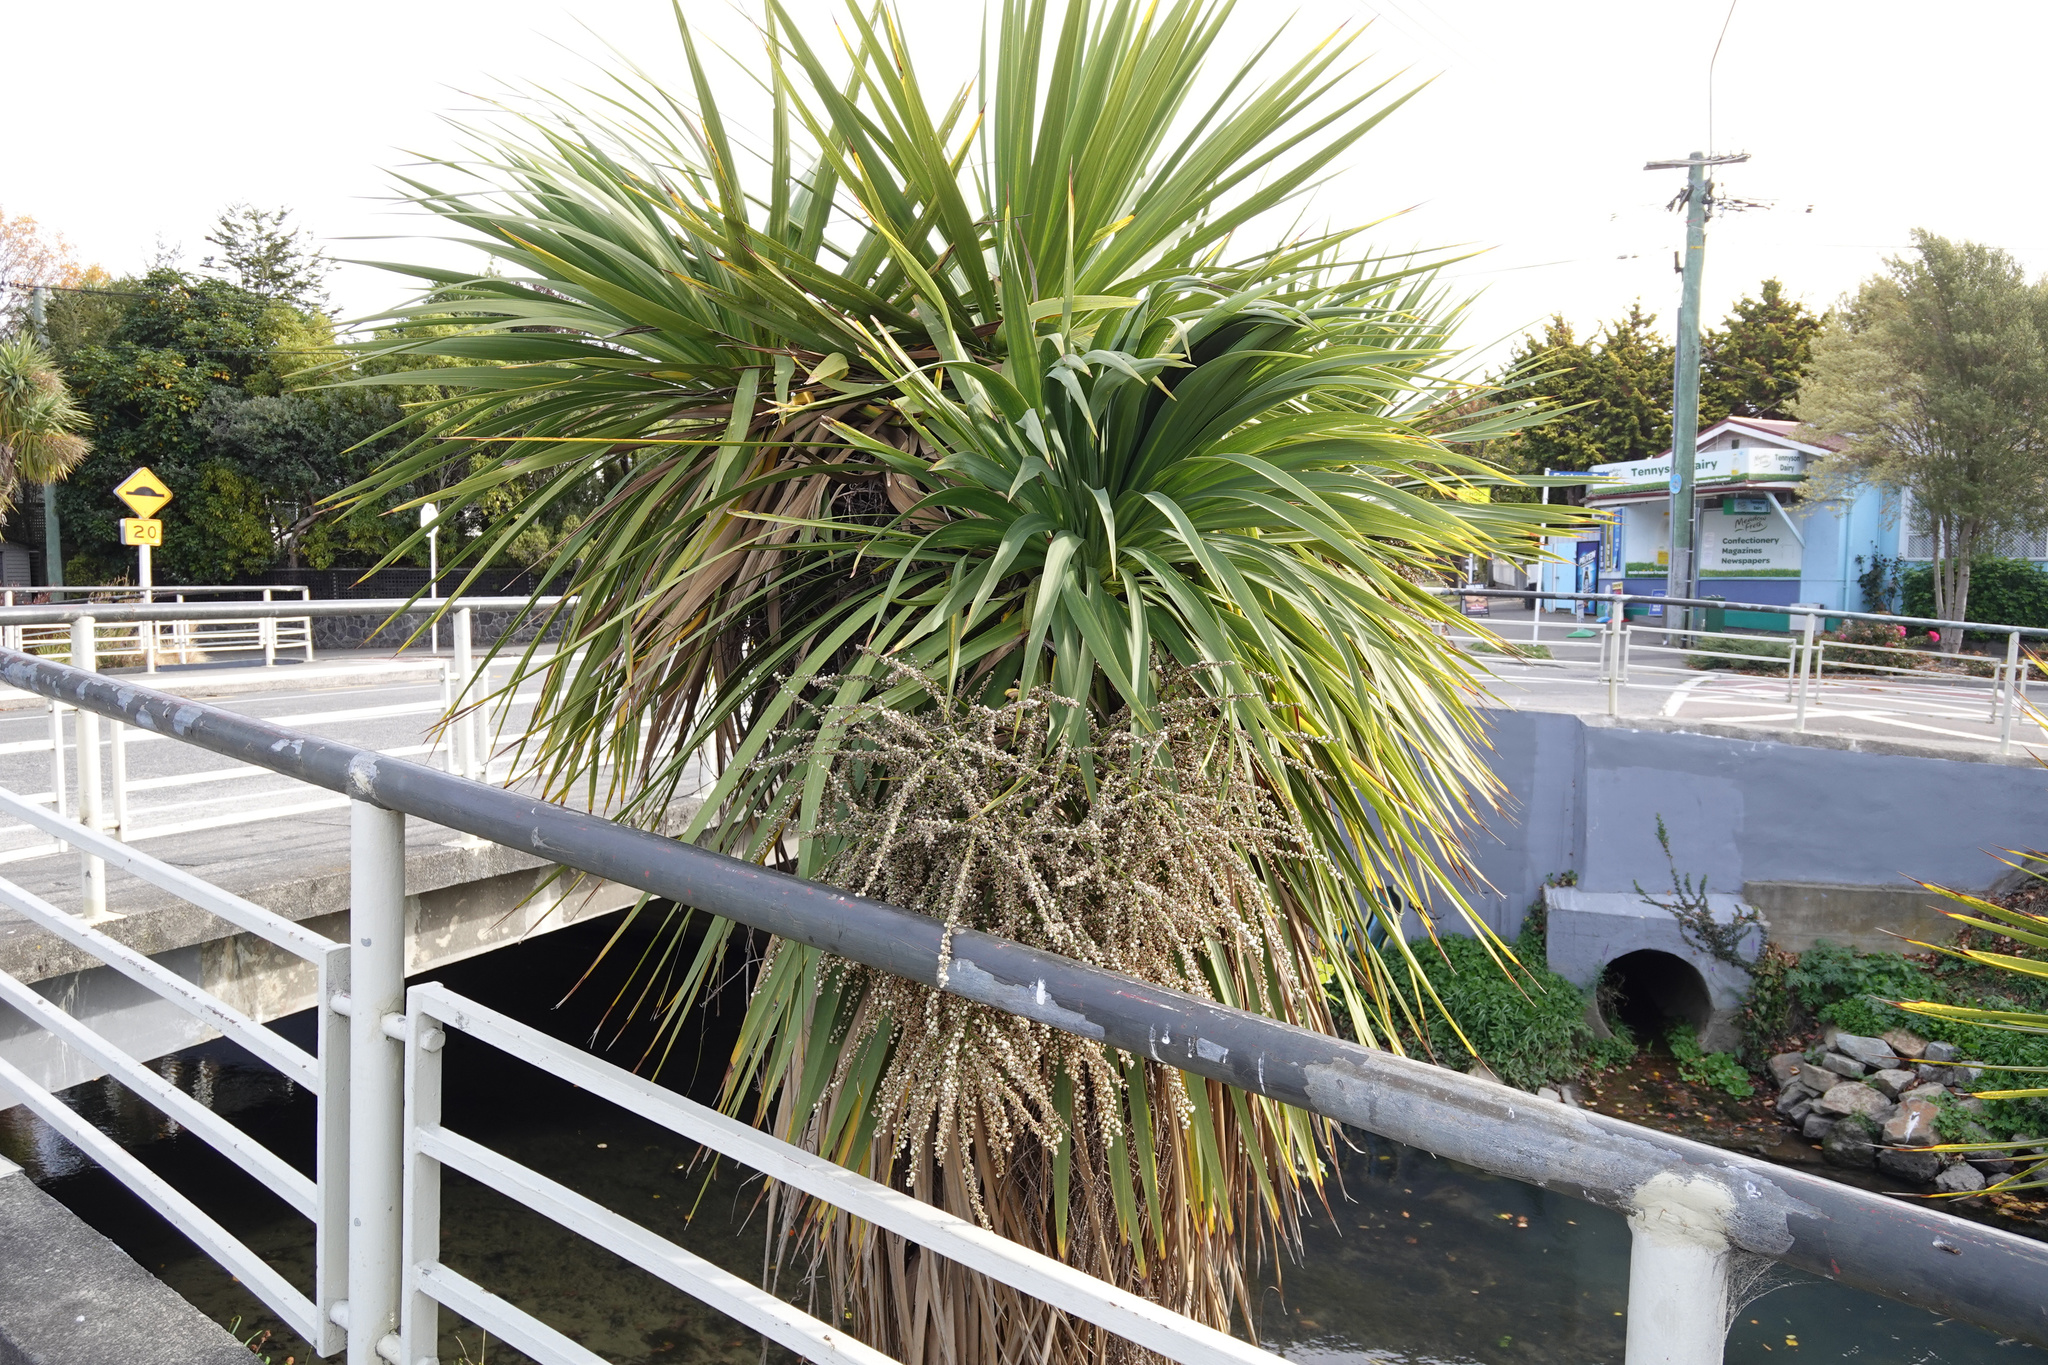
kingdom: Plantae
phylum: Tracheophyta
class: Liliopsida
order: Asparagales
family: Asparagaceae
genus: Cordyline
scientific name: Cordyline australis
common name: Cabbage-palm
